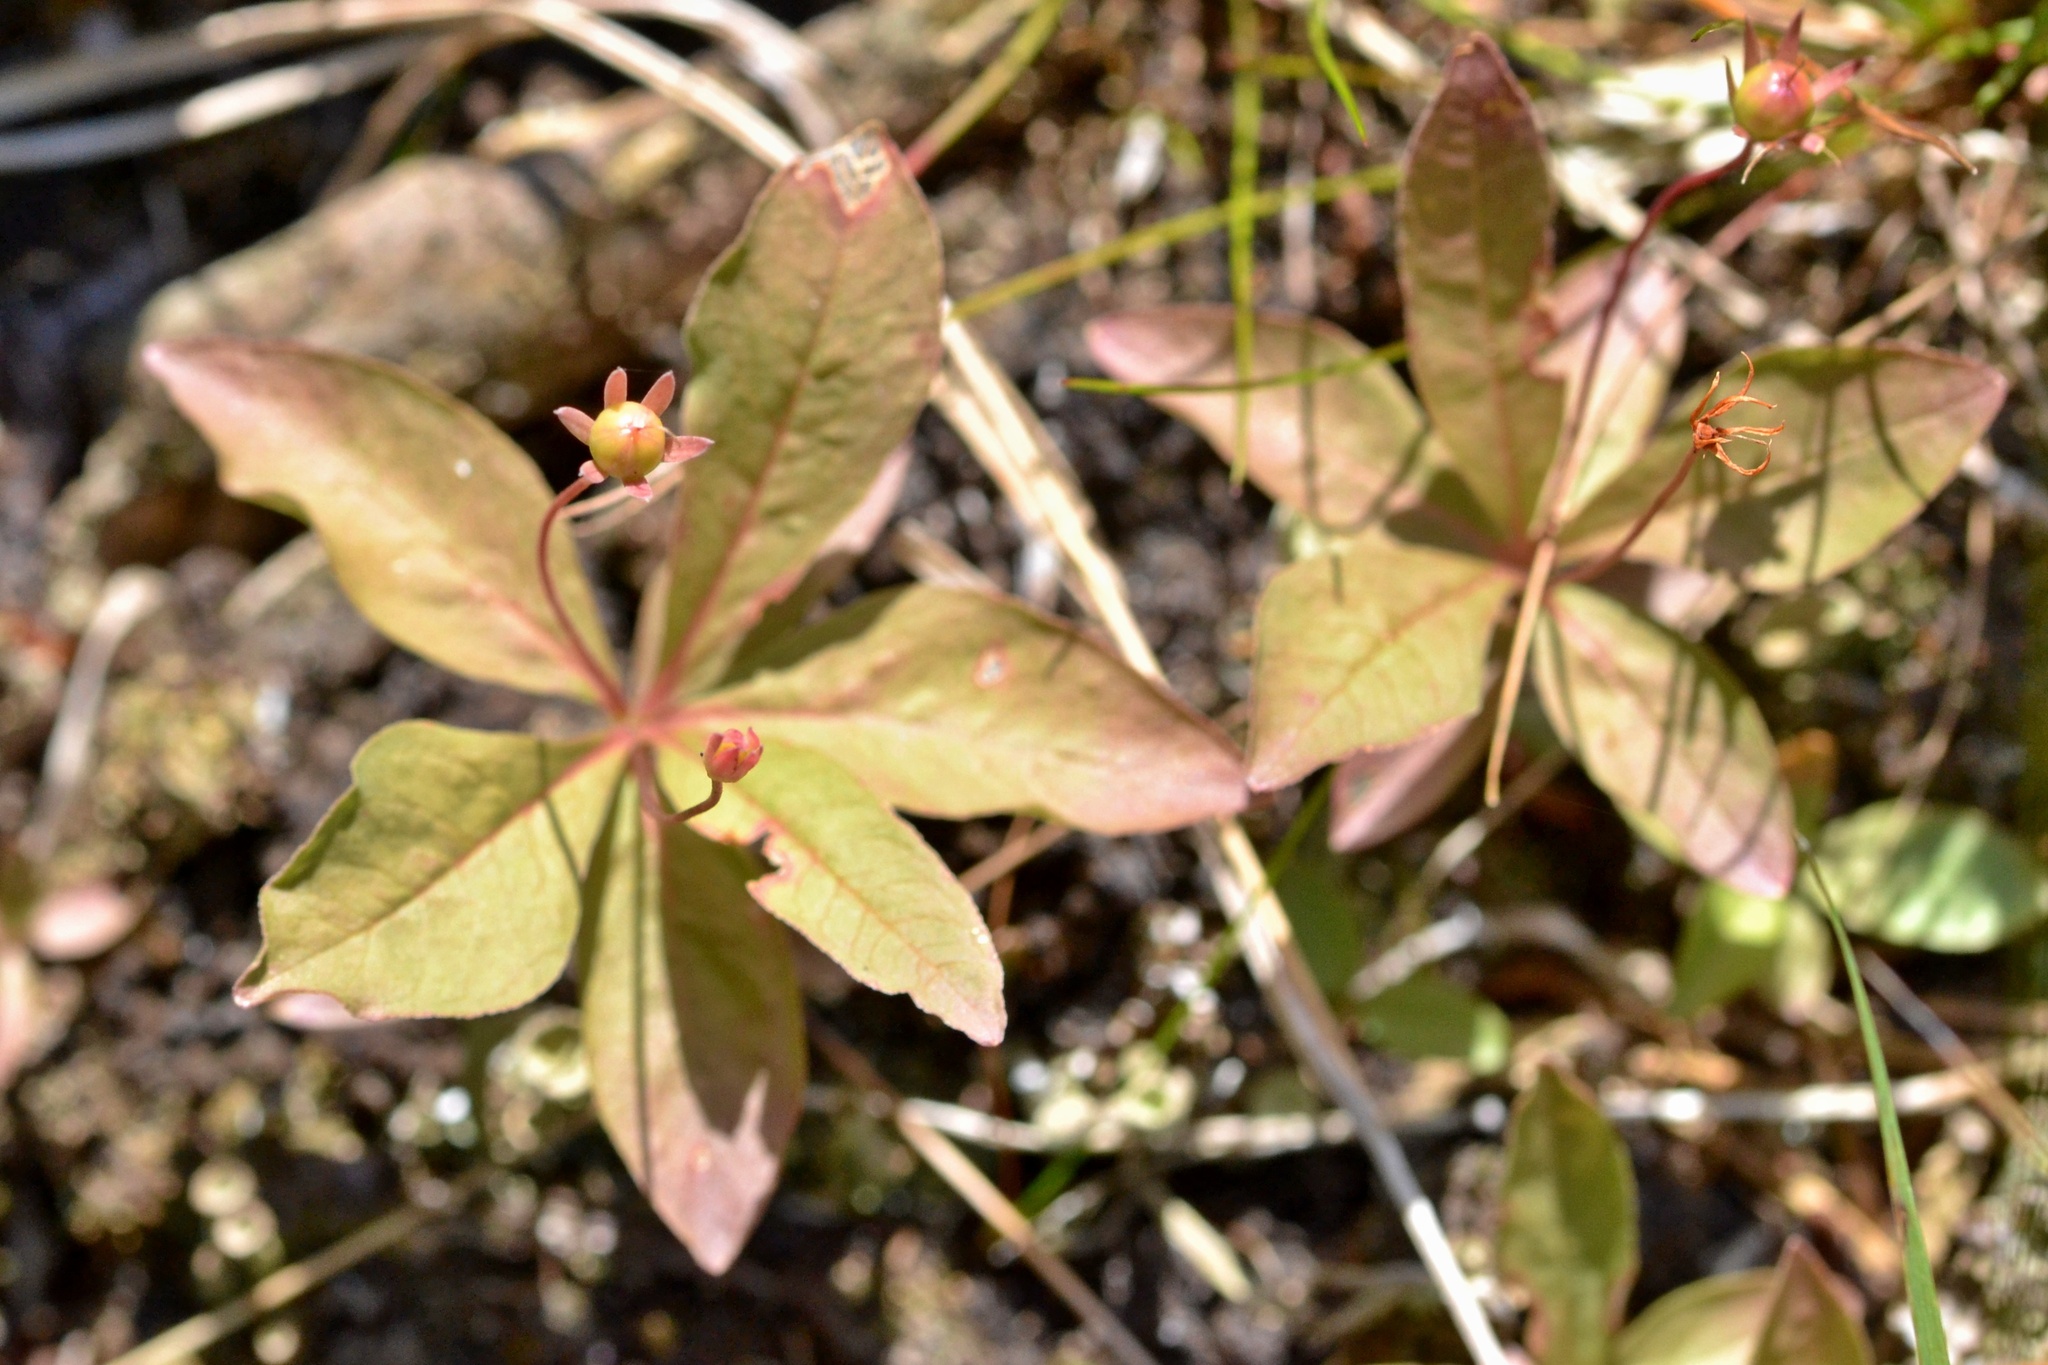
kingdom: Plantae
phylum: Tracheophyta
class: Magnoliopsida
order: Ericales
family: Primulaceae
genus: Lysimachia
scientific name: Lysimachia europaea
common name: Arctic starflower
